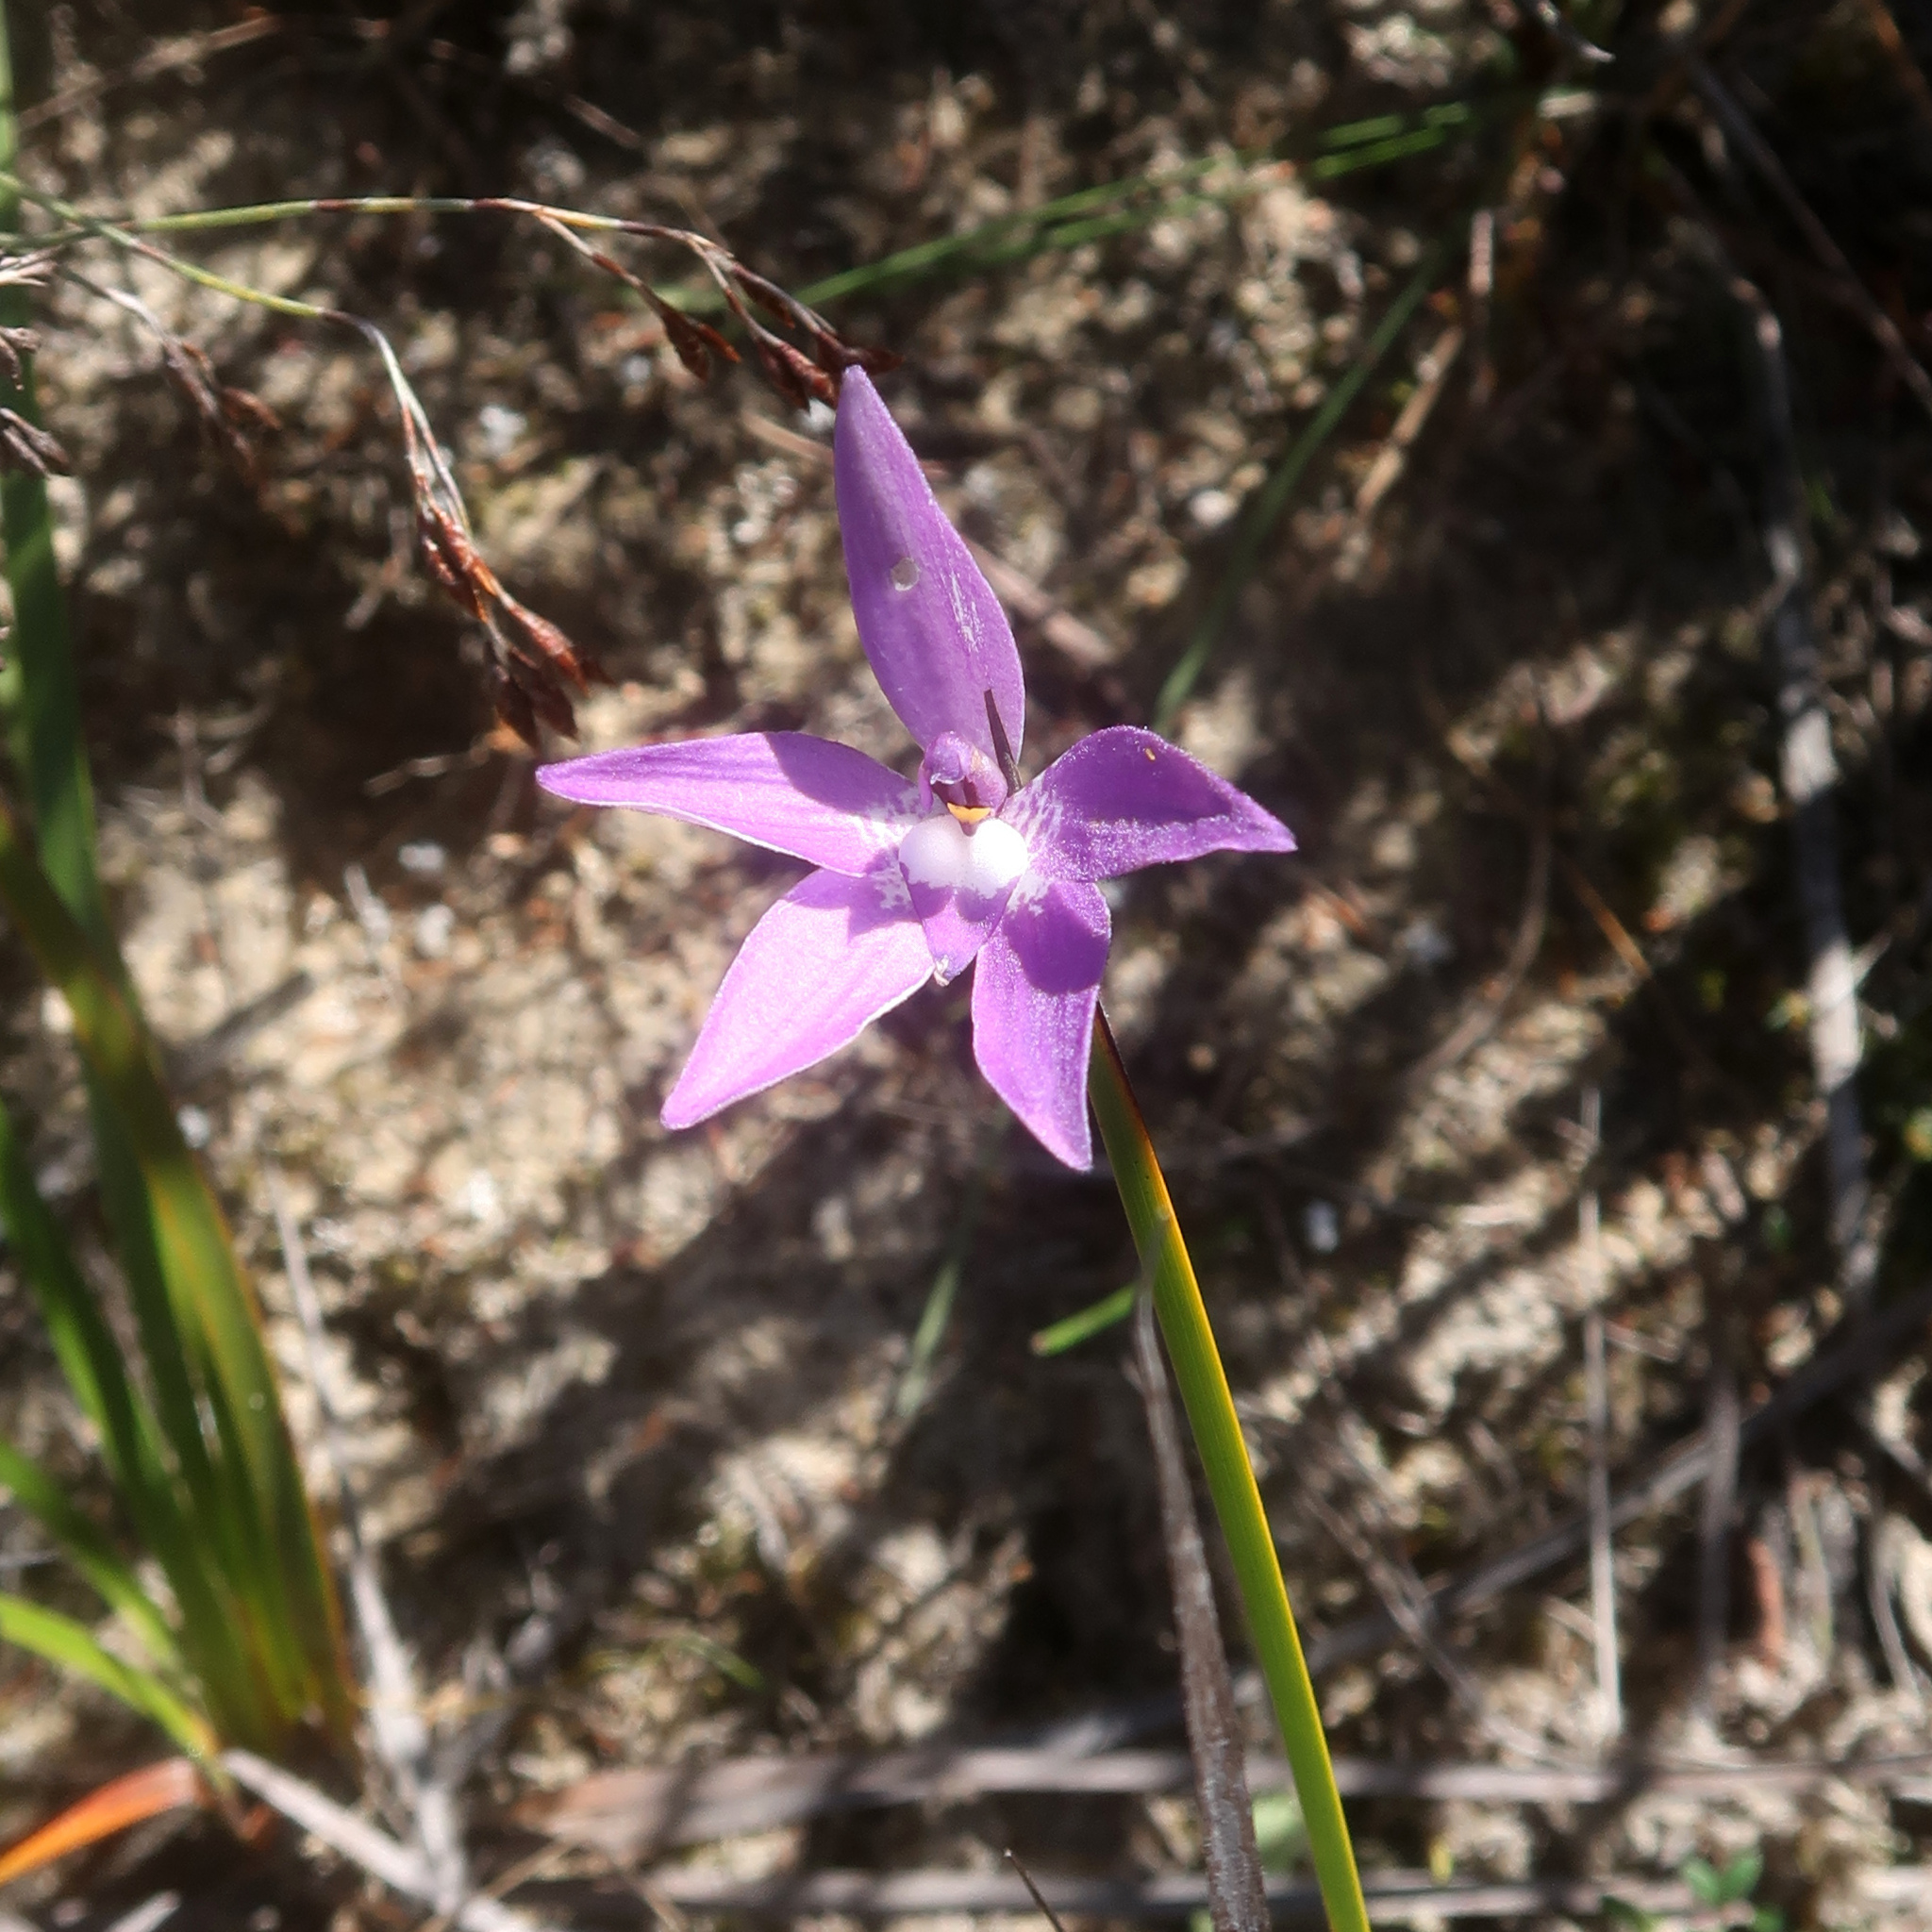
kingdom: Plantae
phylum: Tracheophyta
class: Liliopsida
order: Asparagales
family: Orchidaceae
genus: Caladenia
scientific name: Caladenia major
